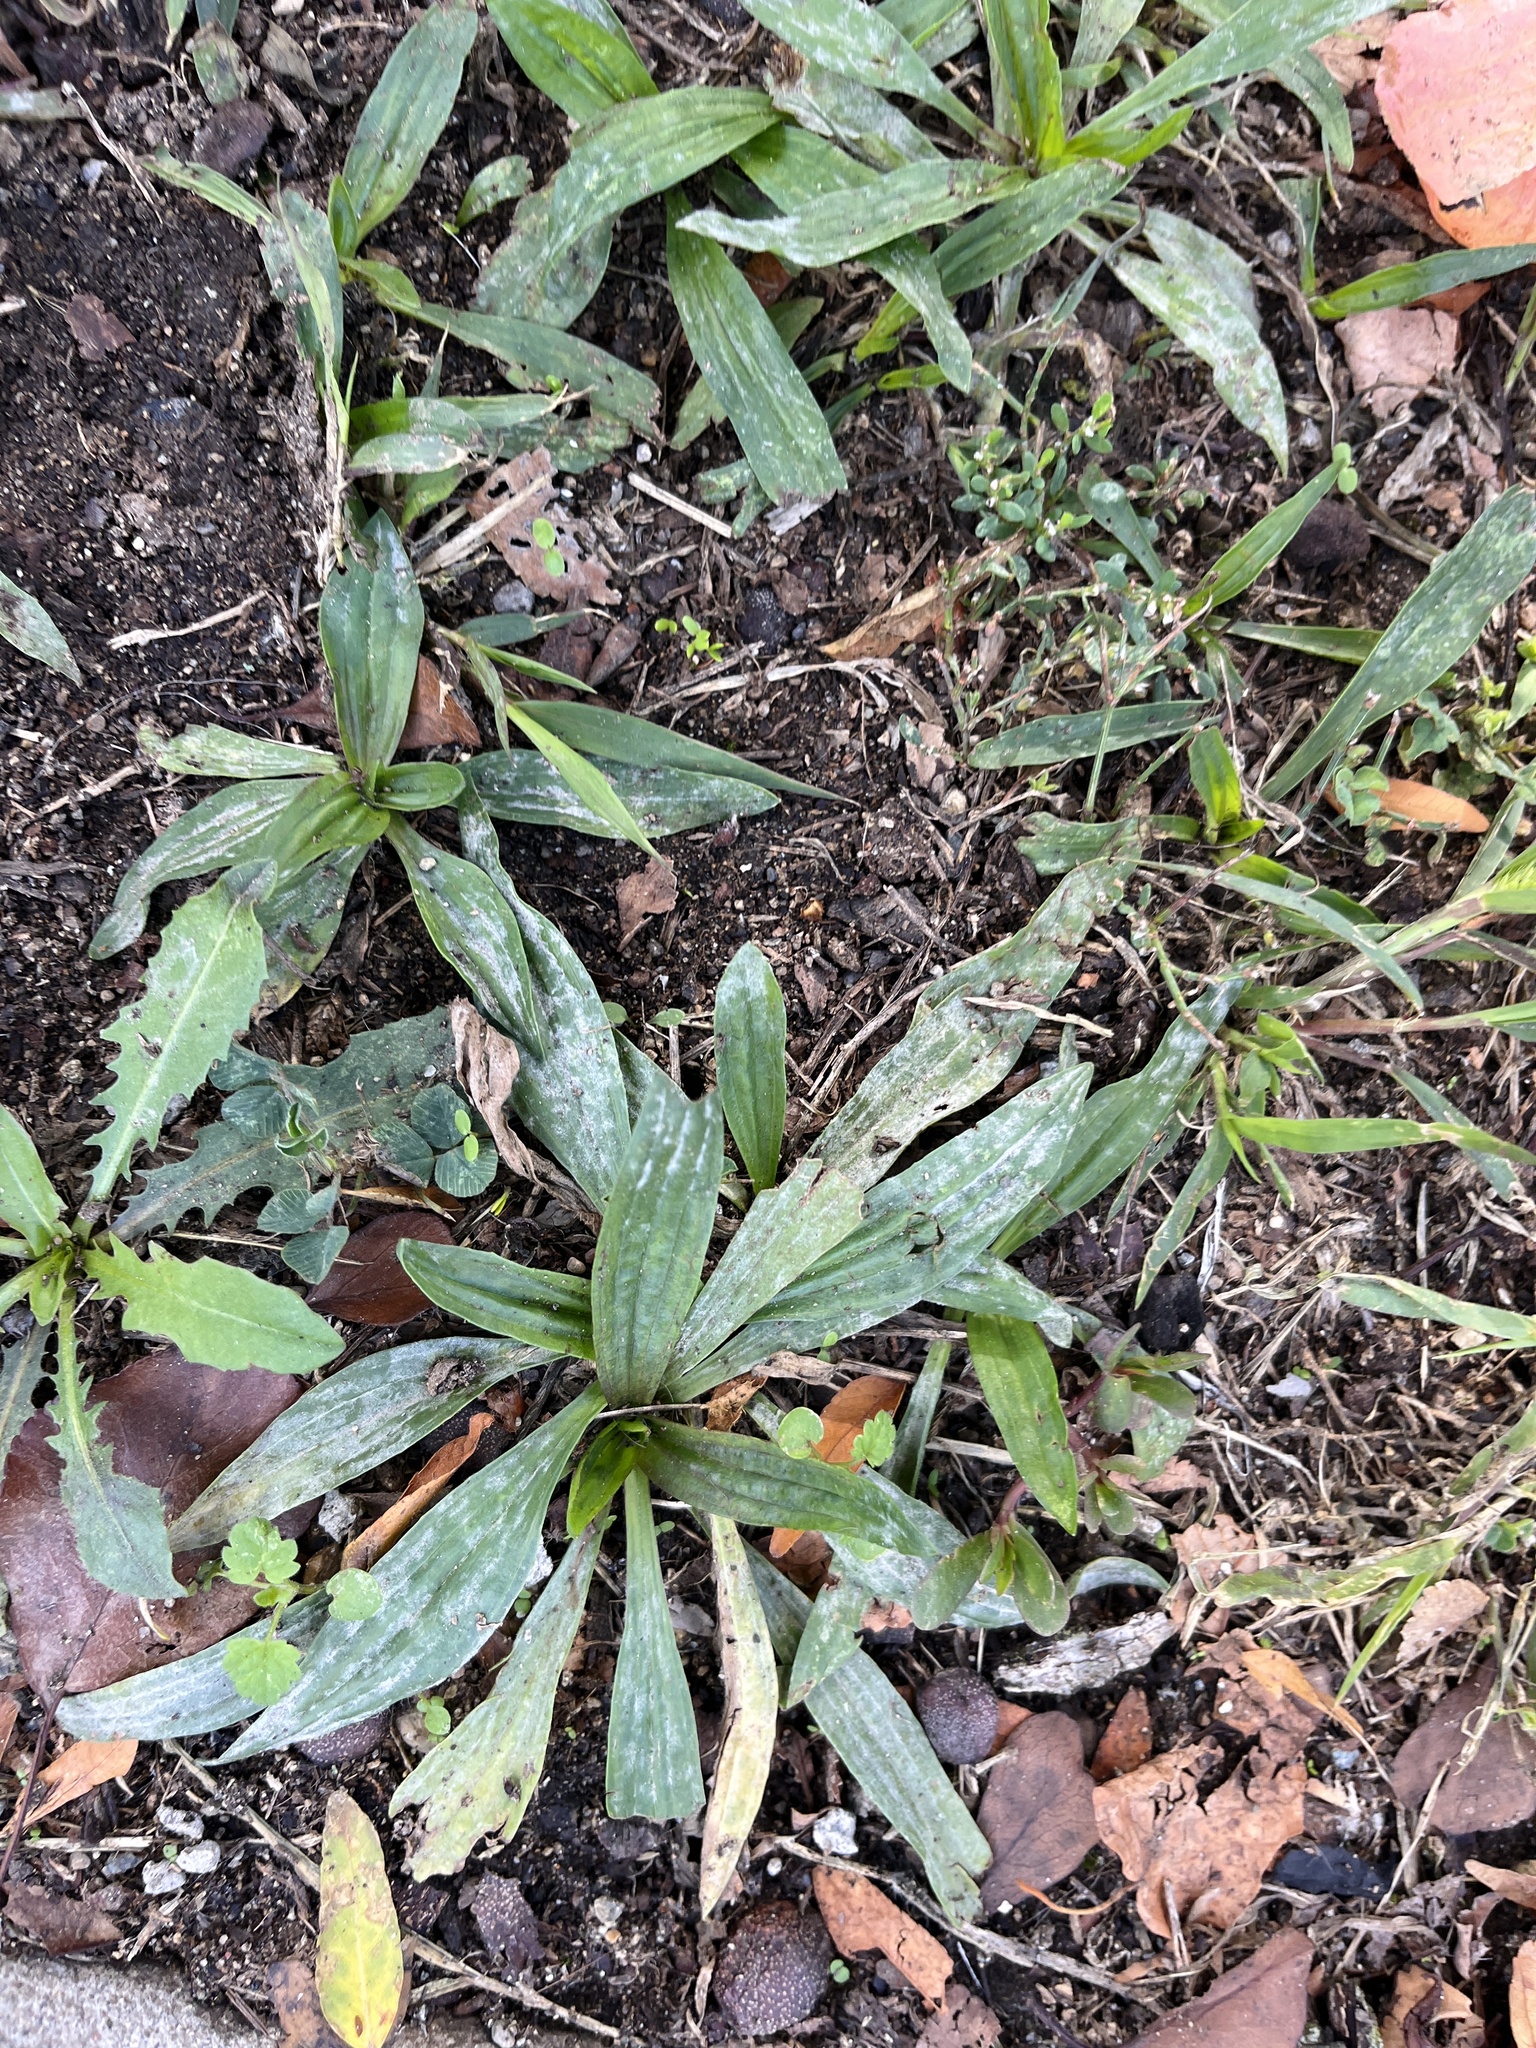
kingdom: Plantae
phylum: Tracheophyta
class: Magnoliopsida
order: Lamiales
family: Plantaginaceae
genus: Plantago
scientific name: Plantago lanceolata
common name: Ribwort plantain
